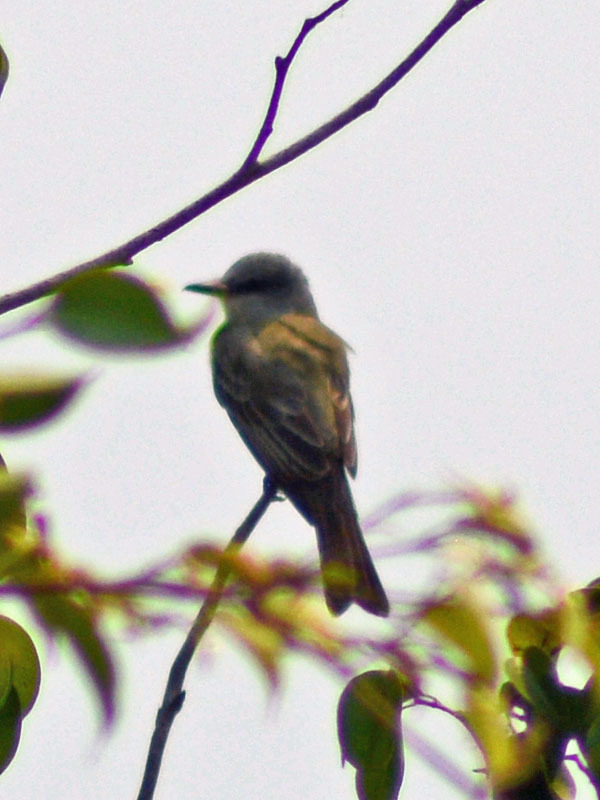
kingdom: Animalia
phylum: Chordata
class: Aves
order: Passeriformes
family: Tyrannidae
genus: Tyrannus
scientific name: Tyrannus melancholicus
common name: Tropical kingbird
